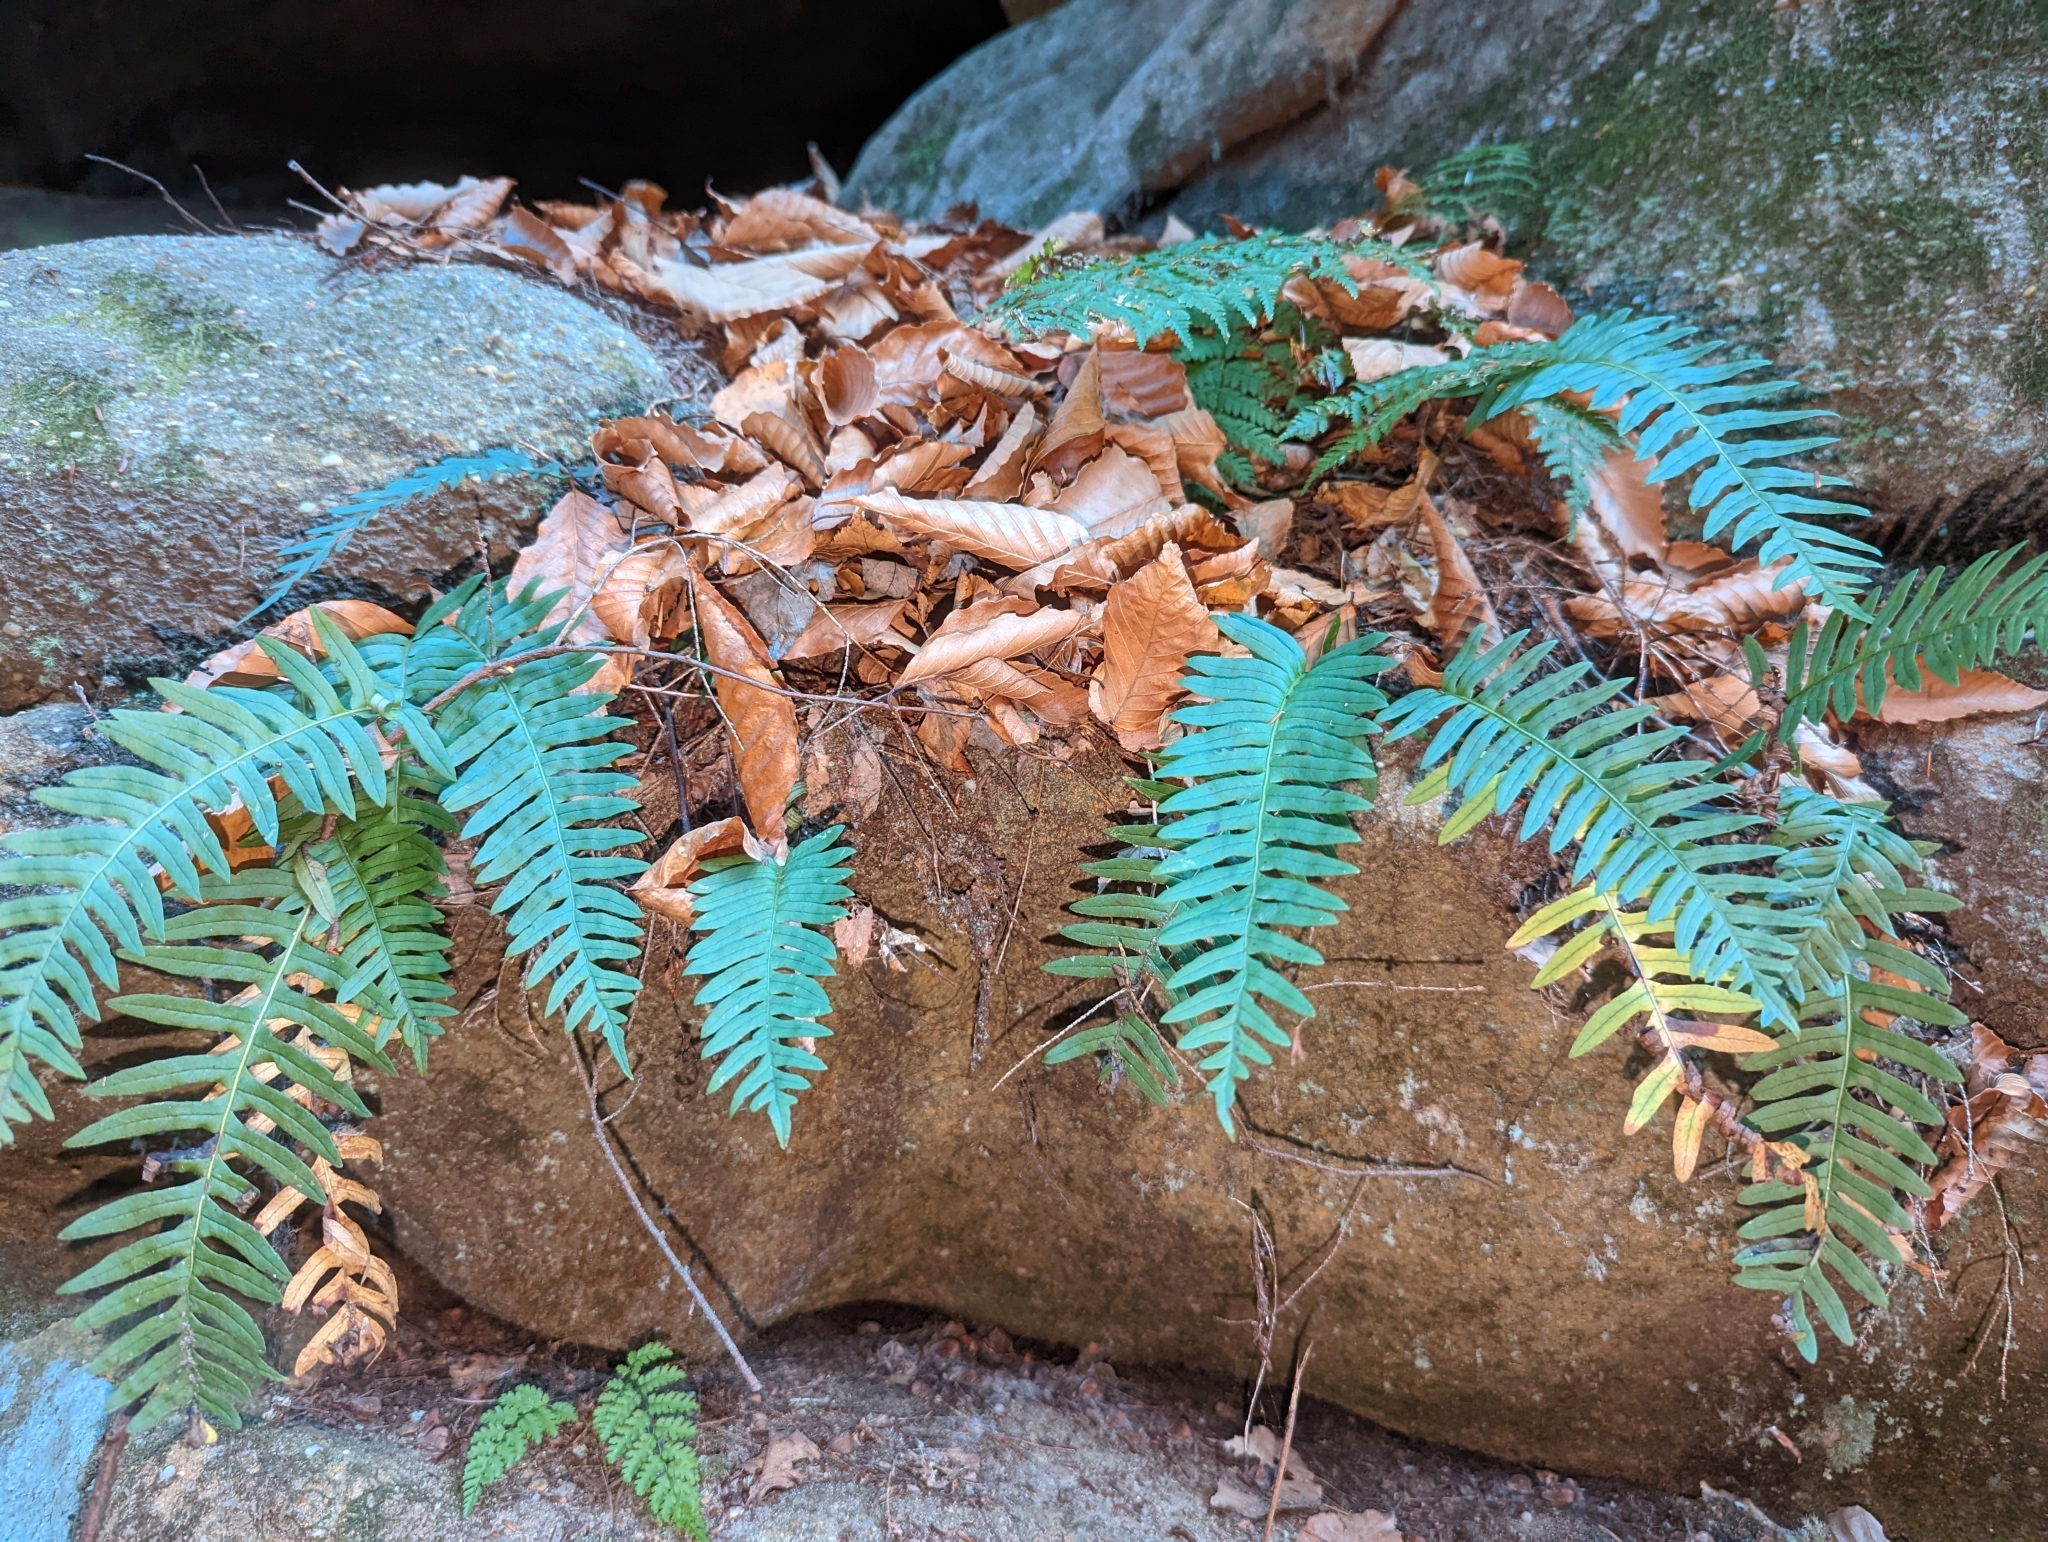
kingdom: Plantae
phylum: Tracheophyta
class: Polypodiopsida
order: Polypodiales
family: Polypodiaceae
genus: Polypodium
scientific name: Polypodium appalachianum
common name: Appalachian polypody
